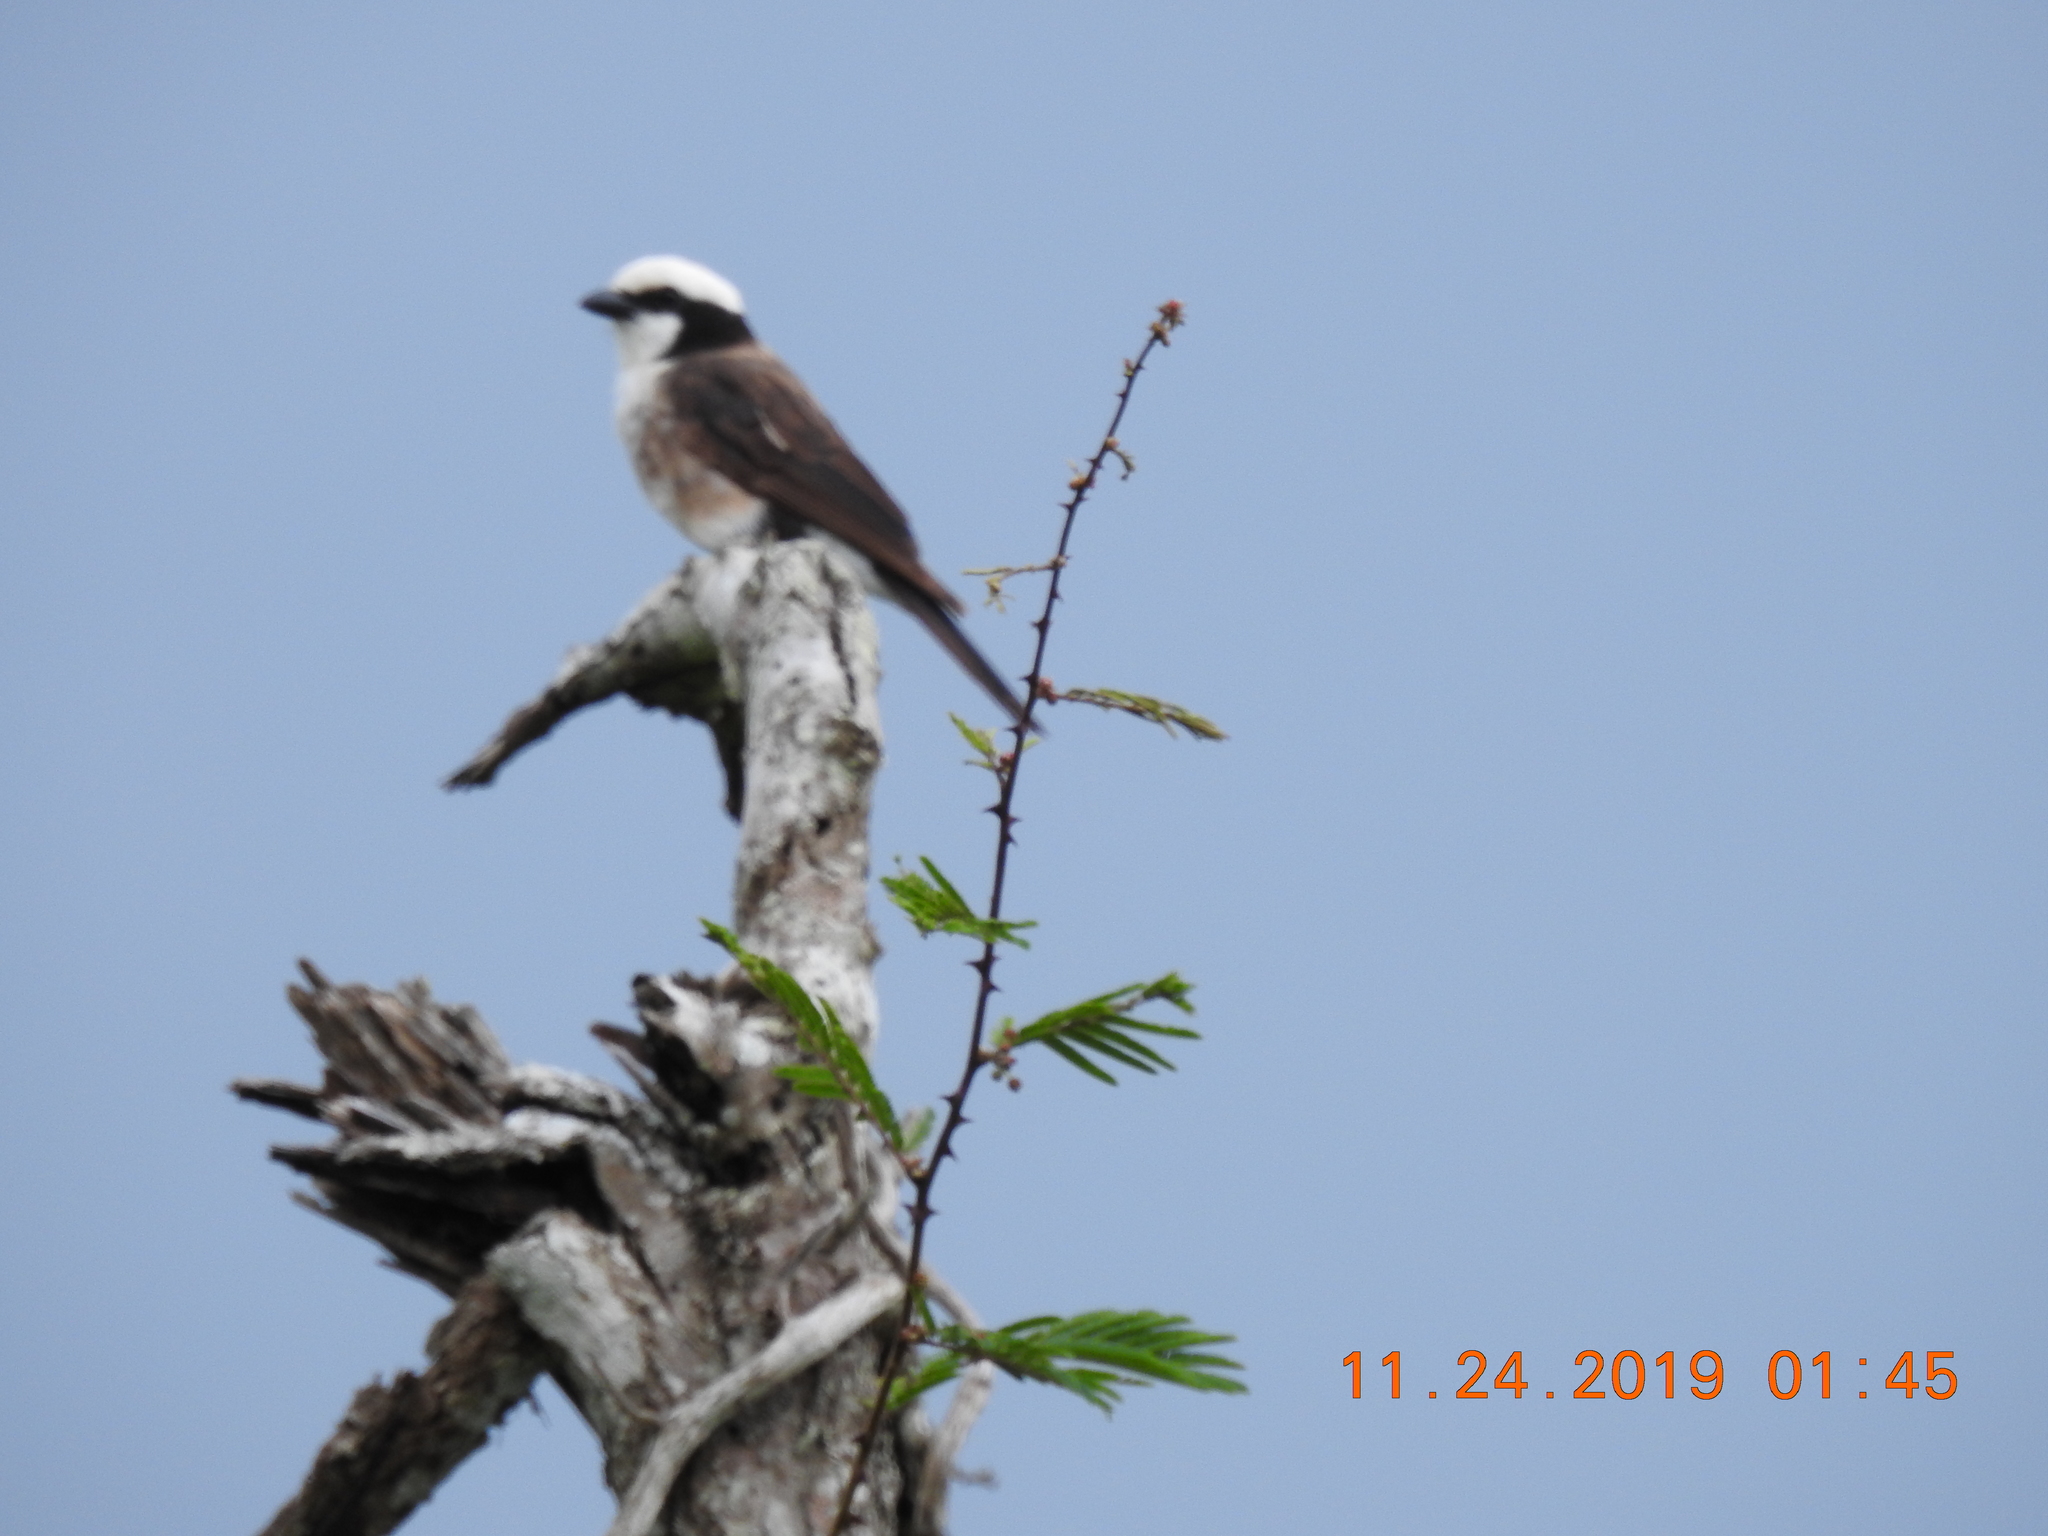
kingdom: Animalia
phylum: Chordata
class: Aves
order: Passeriformes
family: Laniidae
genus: Eurocephalus
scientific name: Eurocephalus ruppelli
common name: Northern white-crowned shrike
